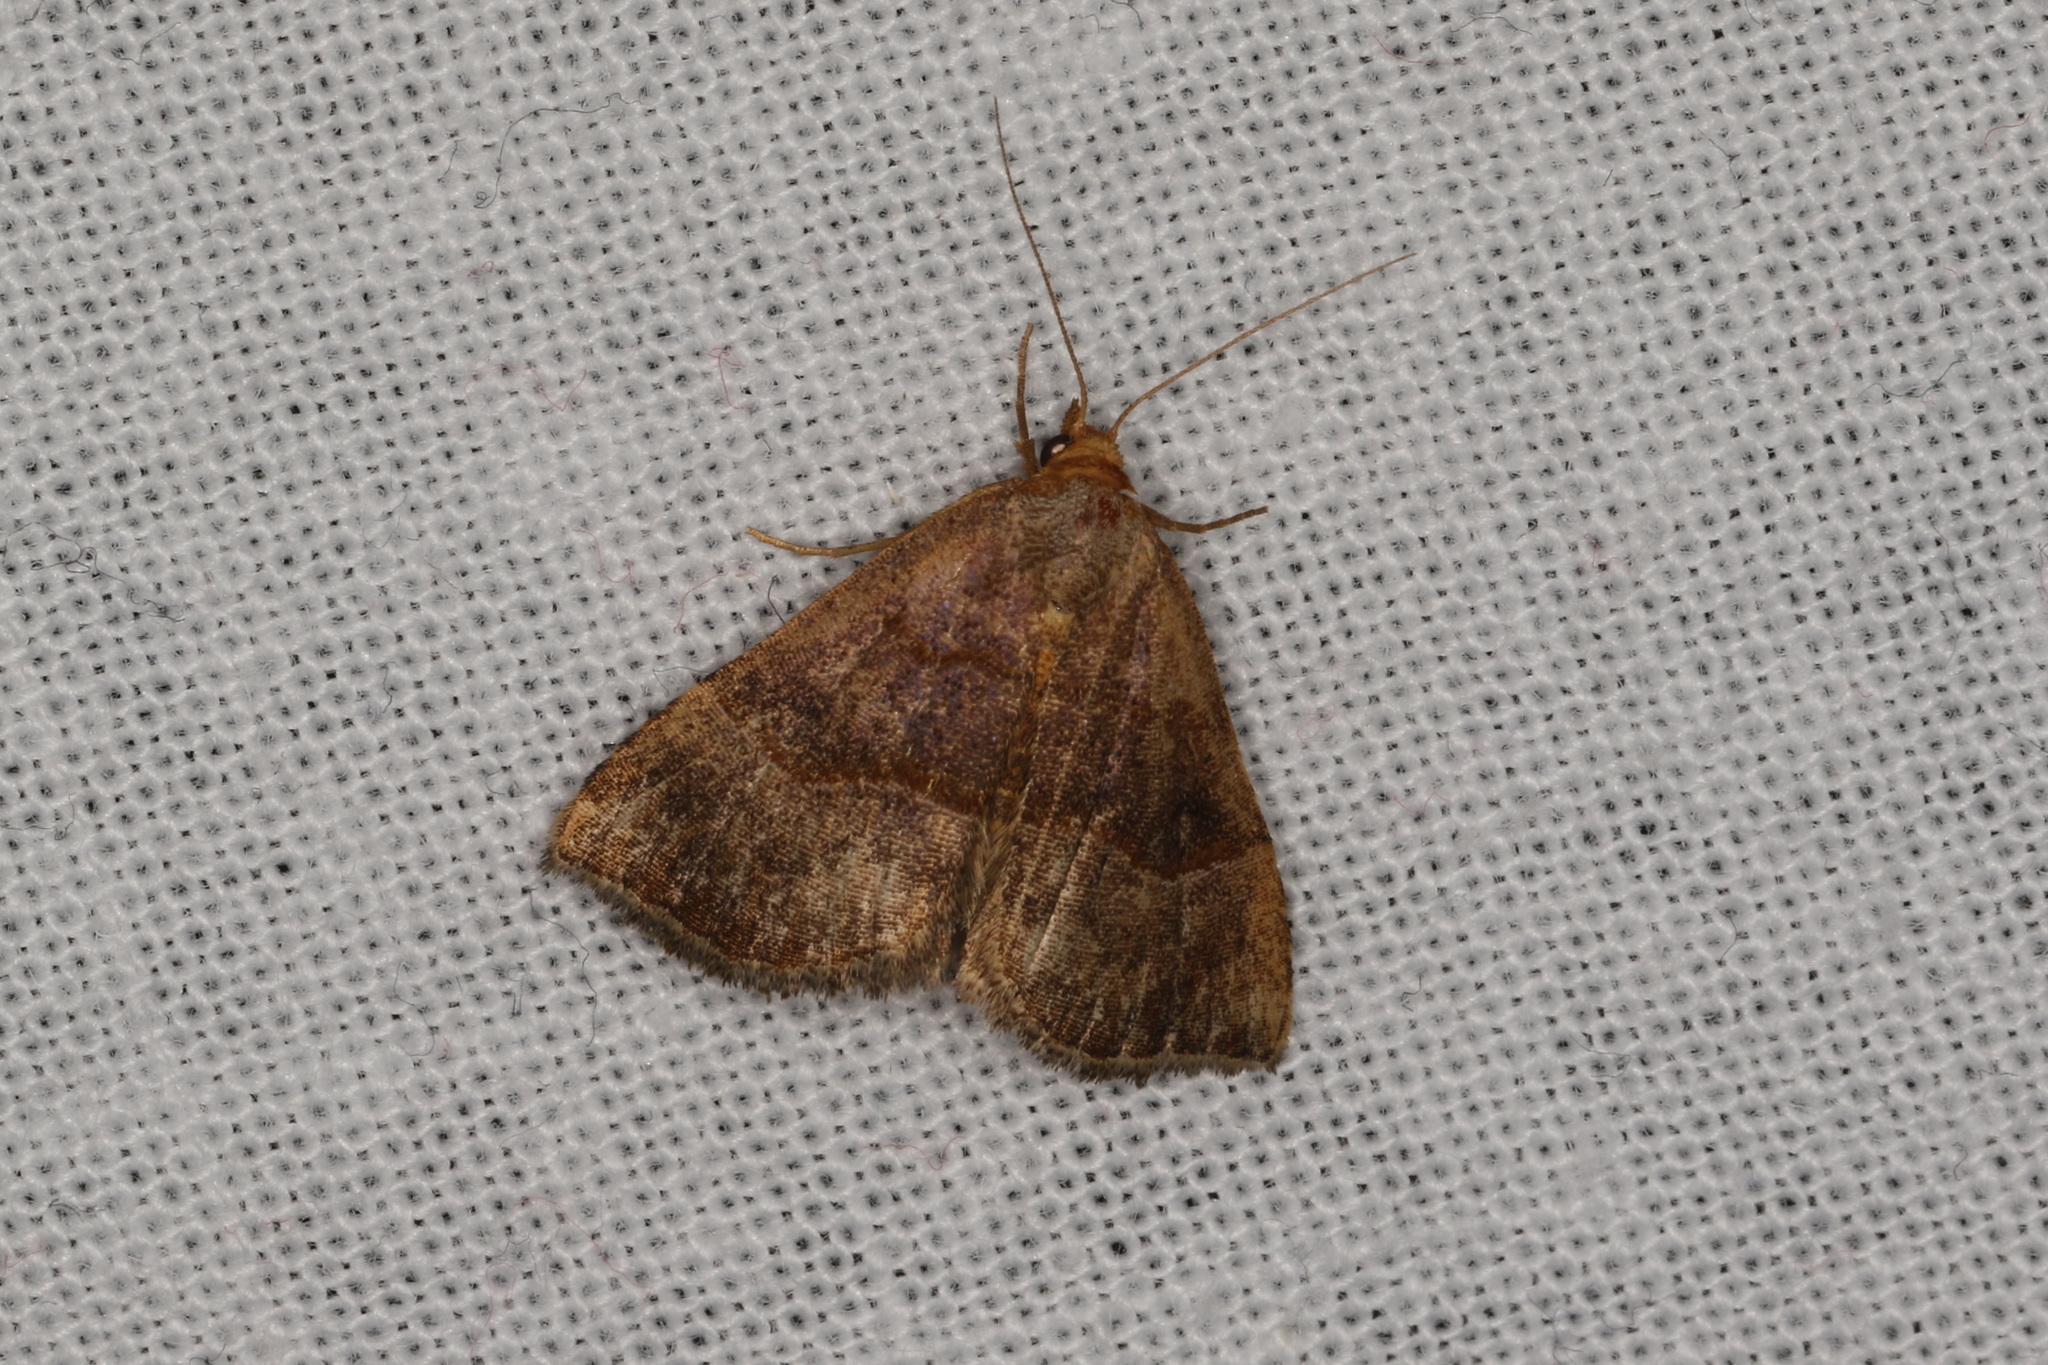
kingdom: Animalia
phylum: Arthropoda
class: Insecta
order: Lepidoptera
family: Erebidae
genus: Meranda
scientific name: Meranda susialis
